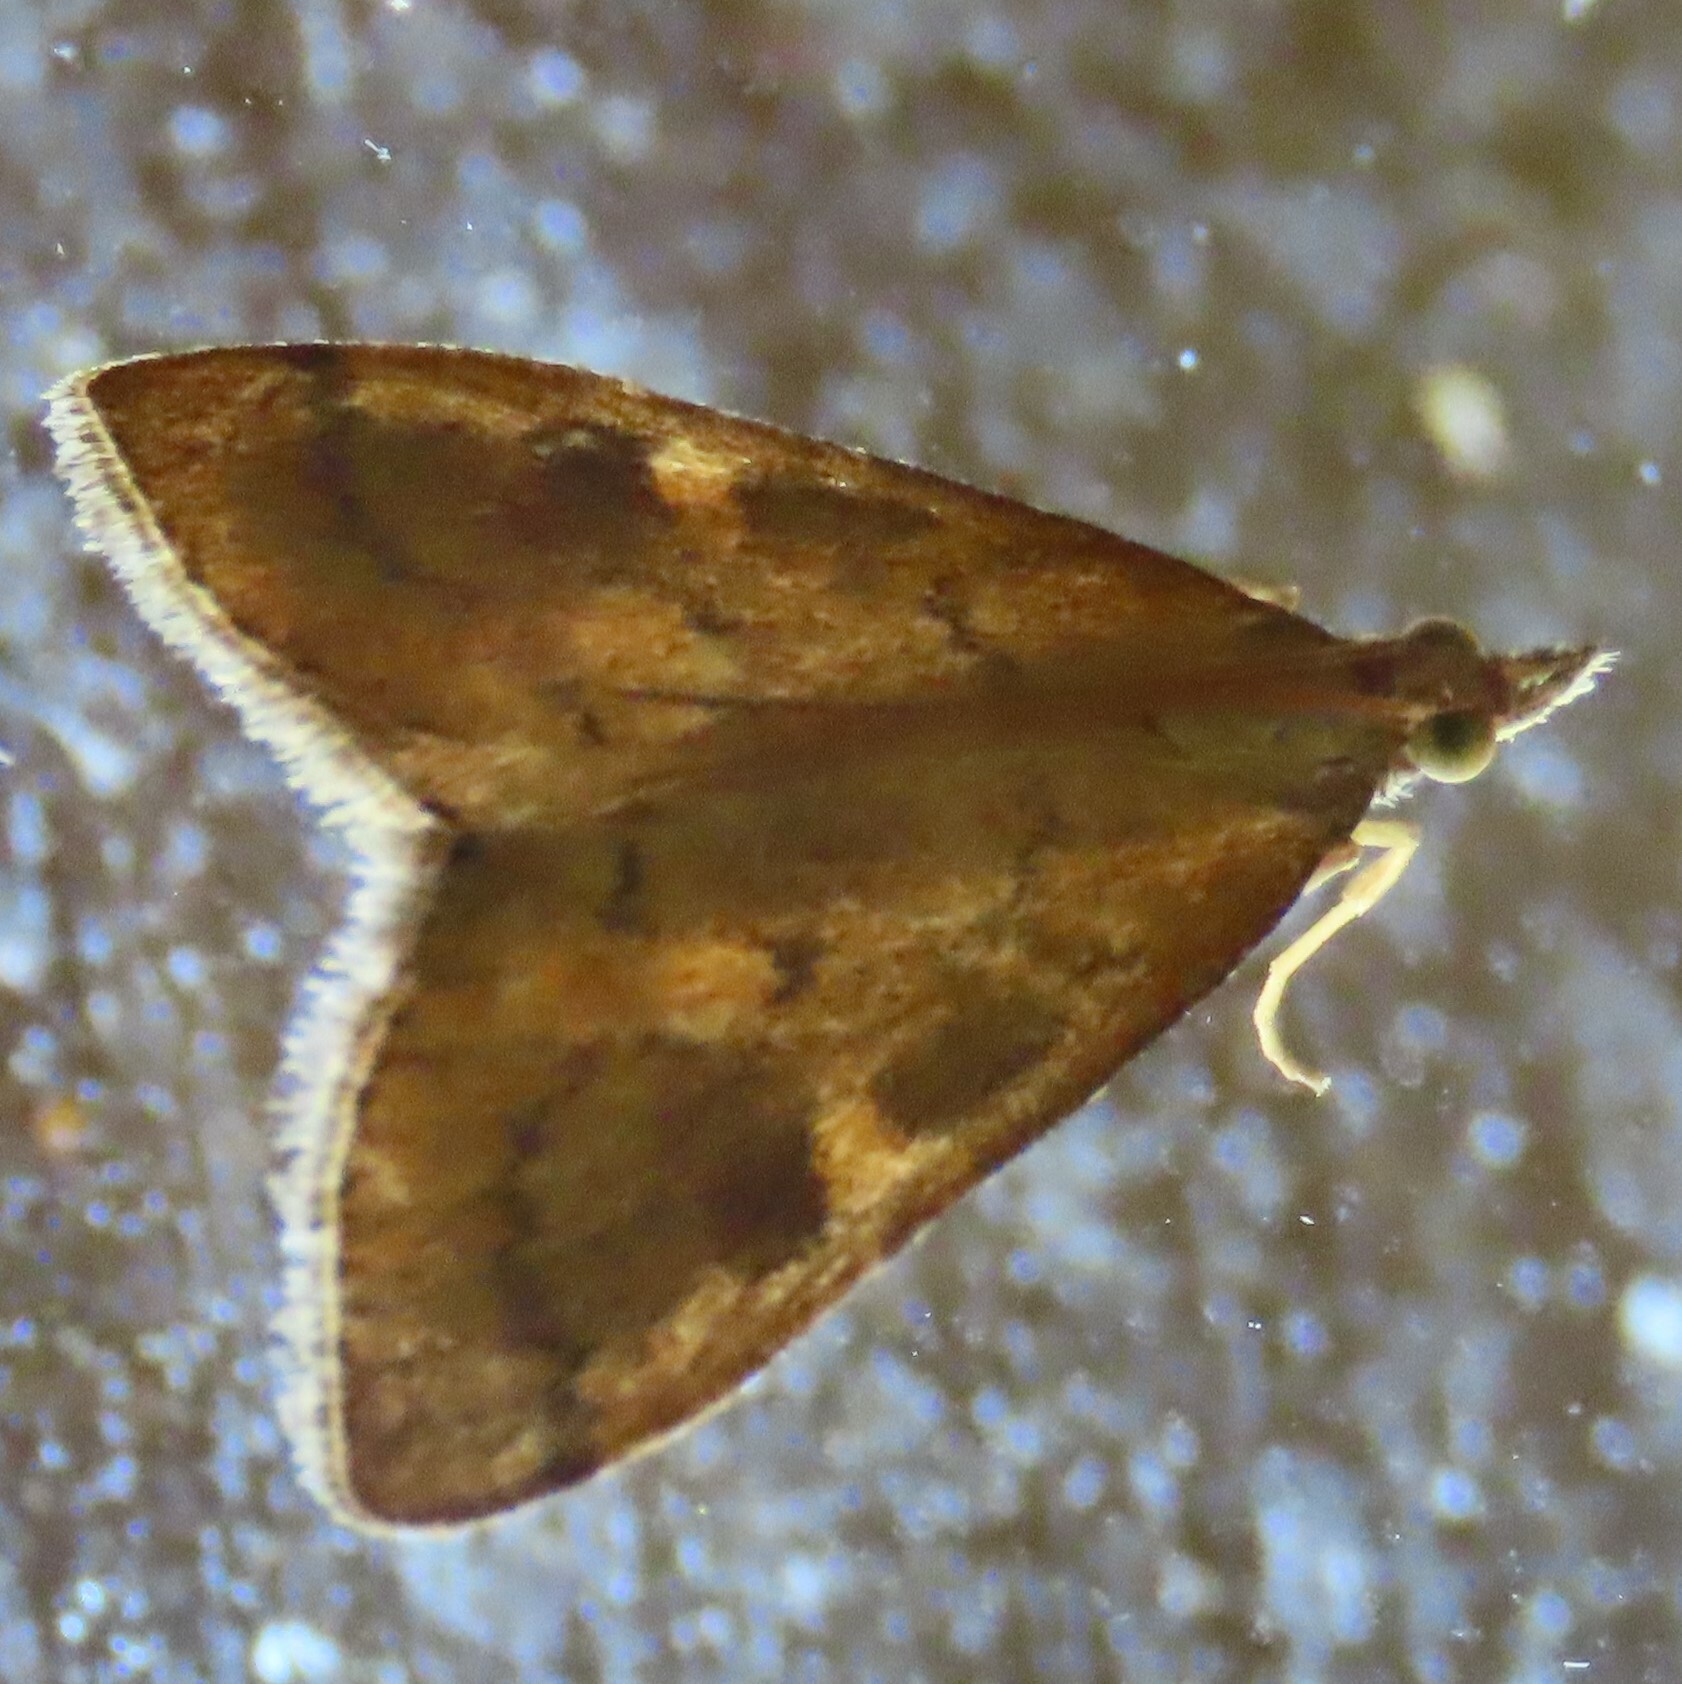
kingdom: Animalia
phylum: Arthropoda
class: Insecta
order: Lepidoptera
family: Crambidae
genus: Udea
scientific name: Udea Mnesictena flavidalis
